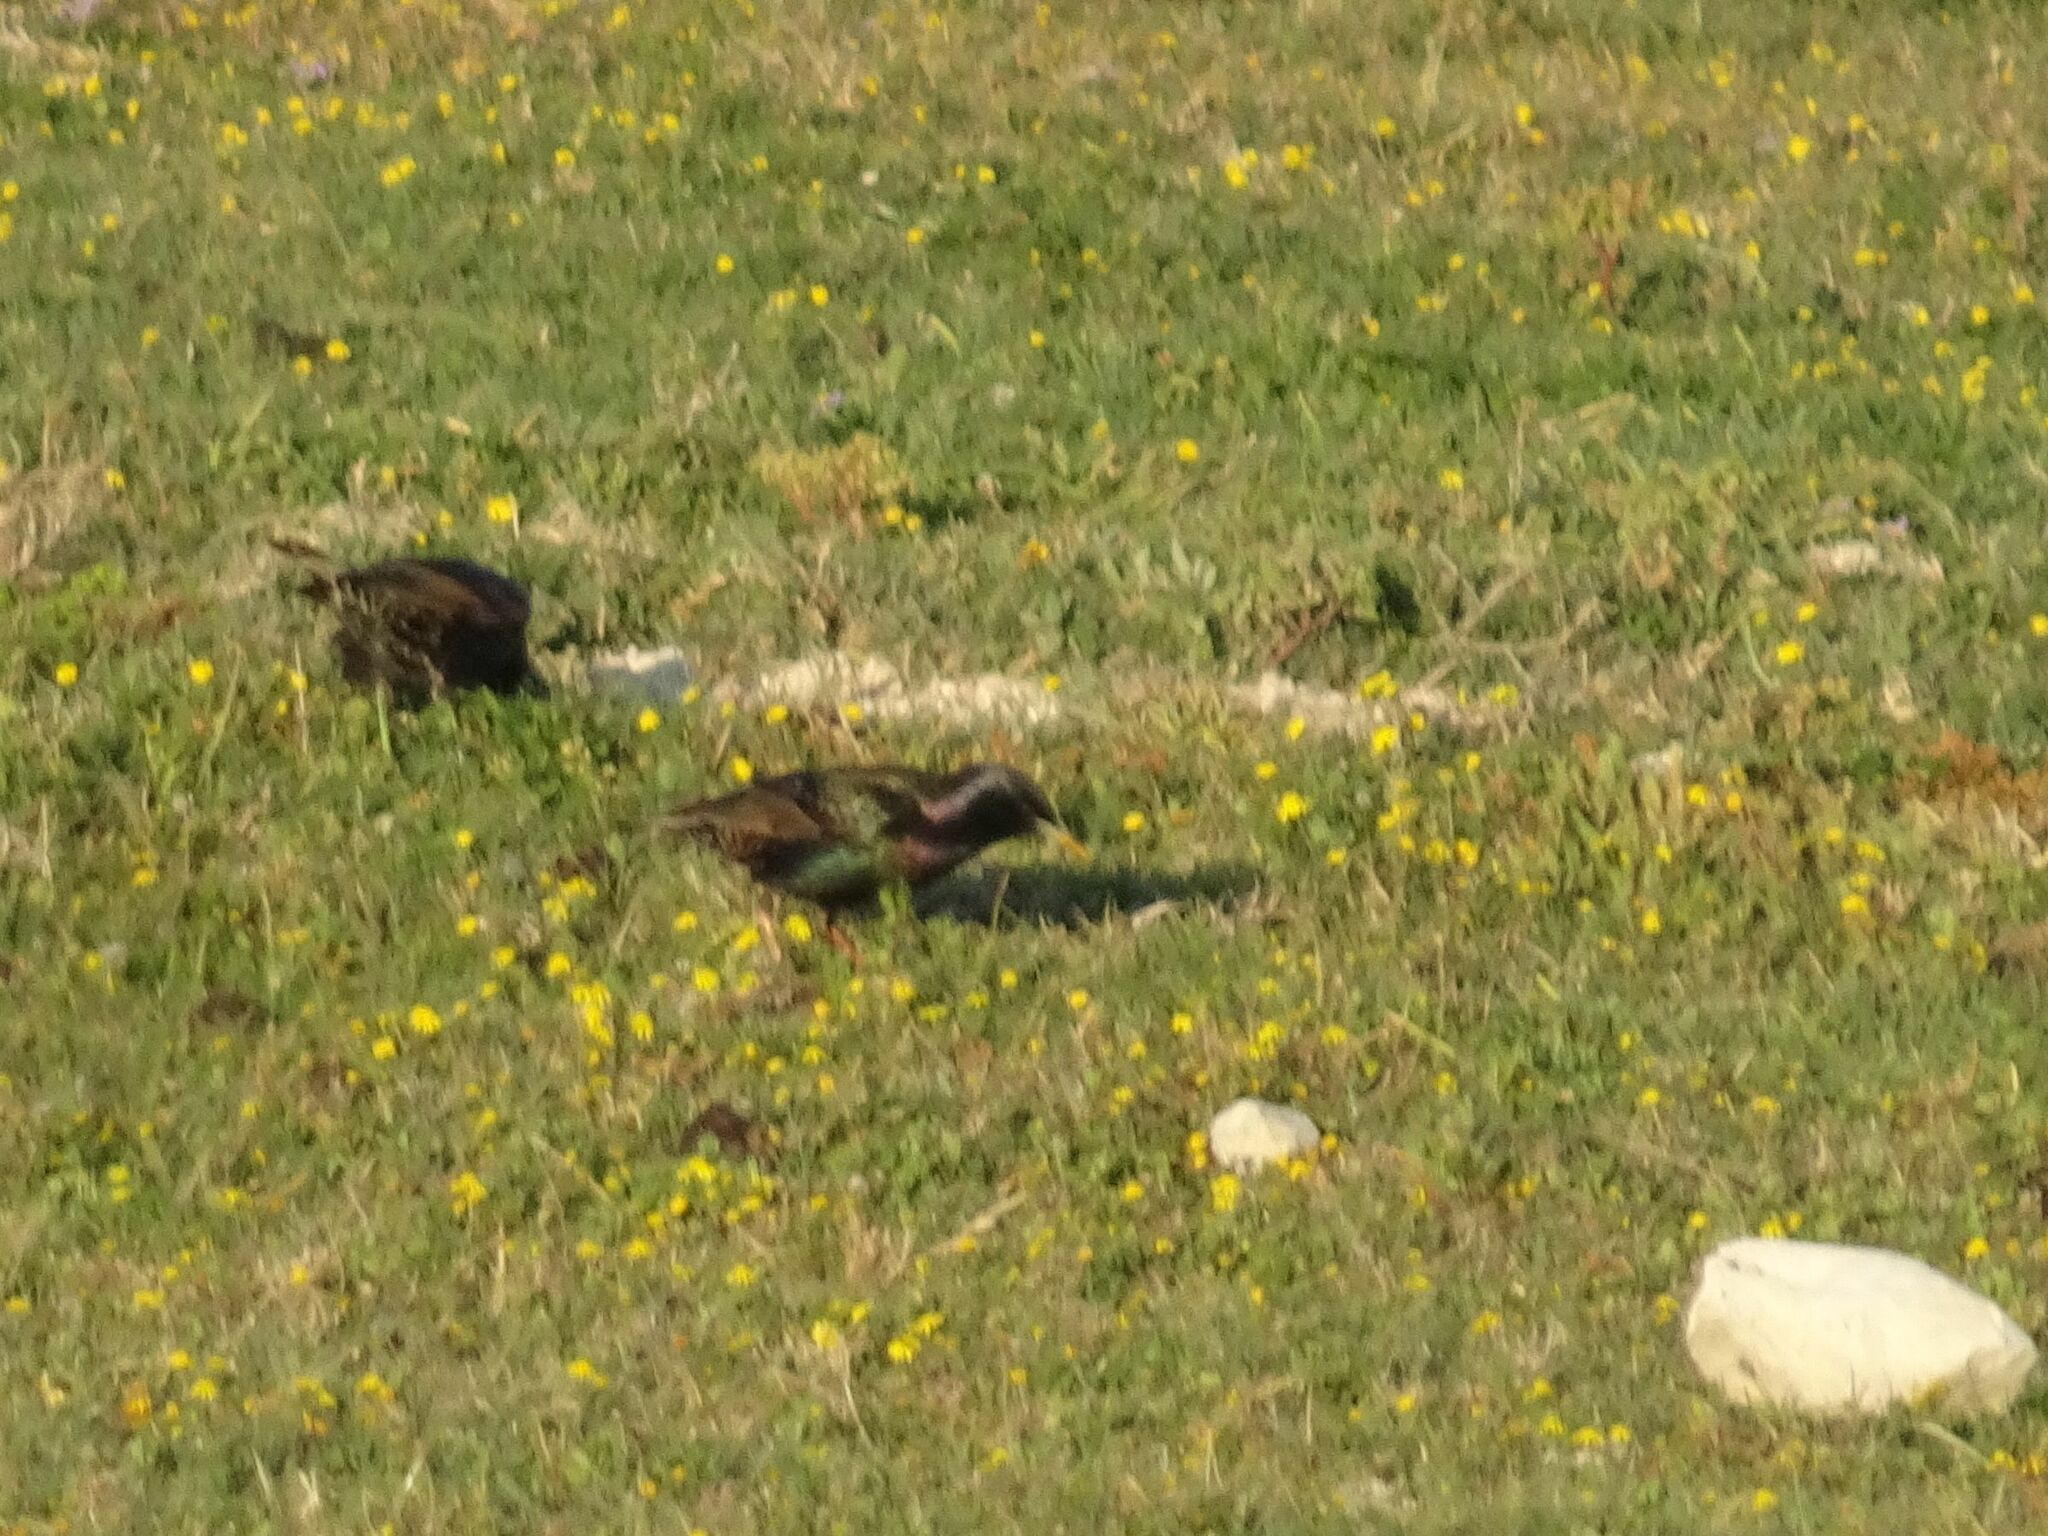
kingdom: Animalia
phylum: Chordata
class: Aves
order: Passeriformes
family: Sturnidae
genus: Sturnus
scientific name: Sturnus vulgaris
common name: Common starling
